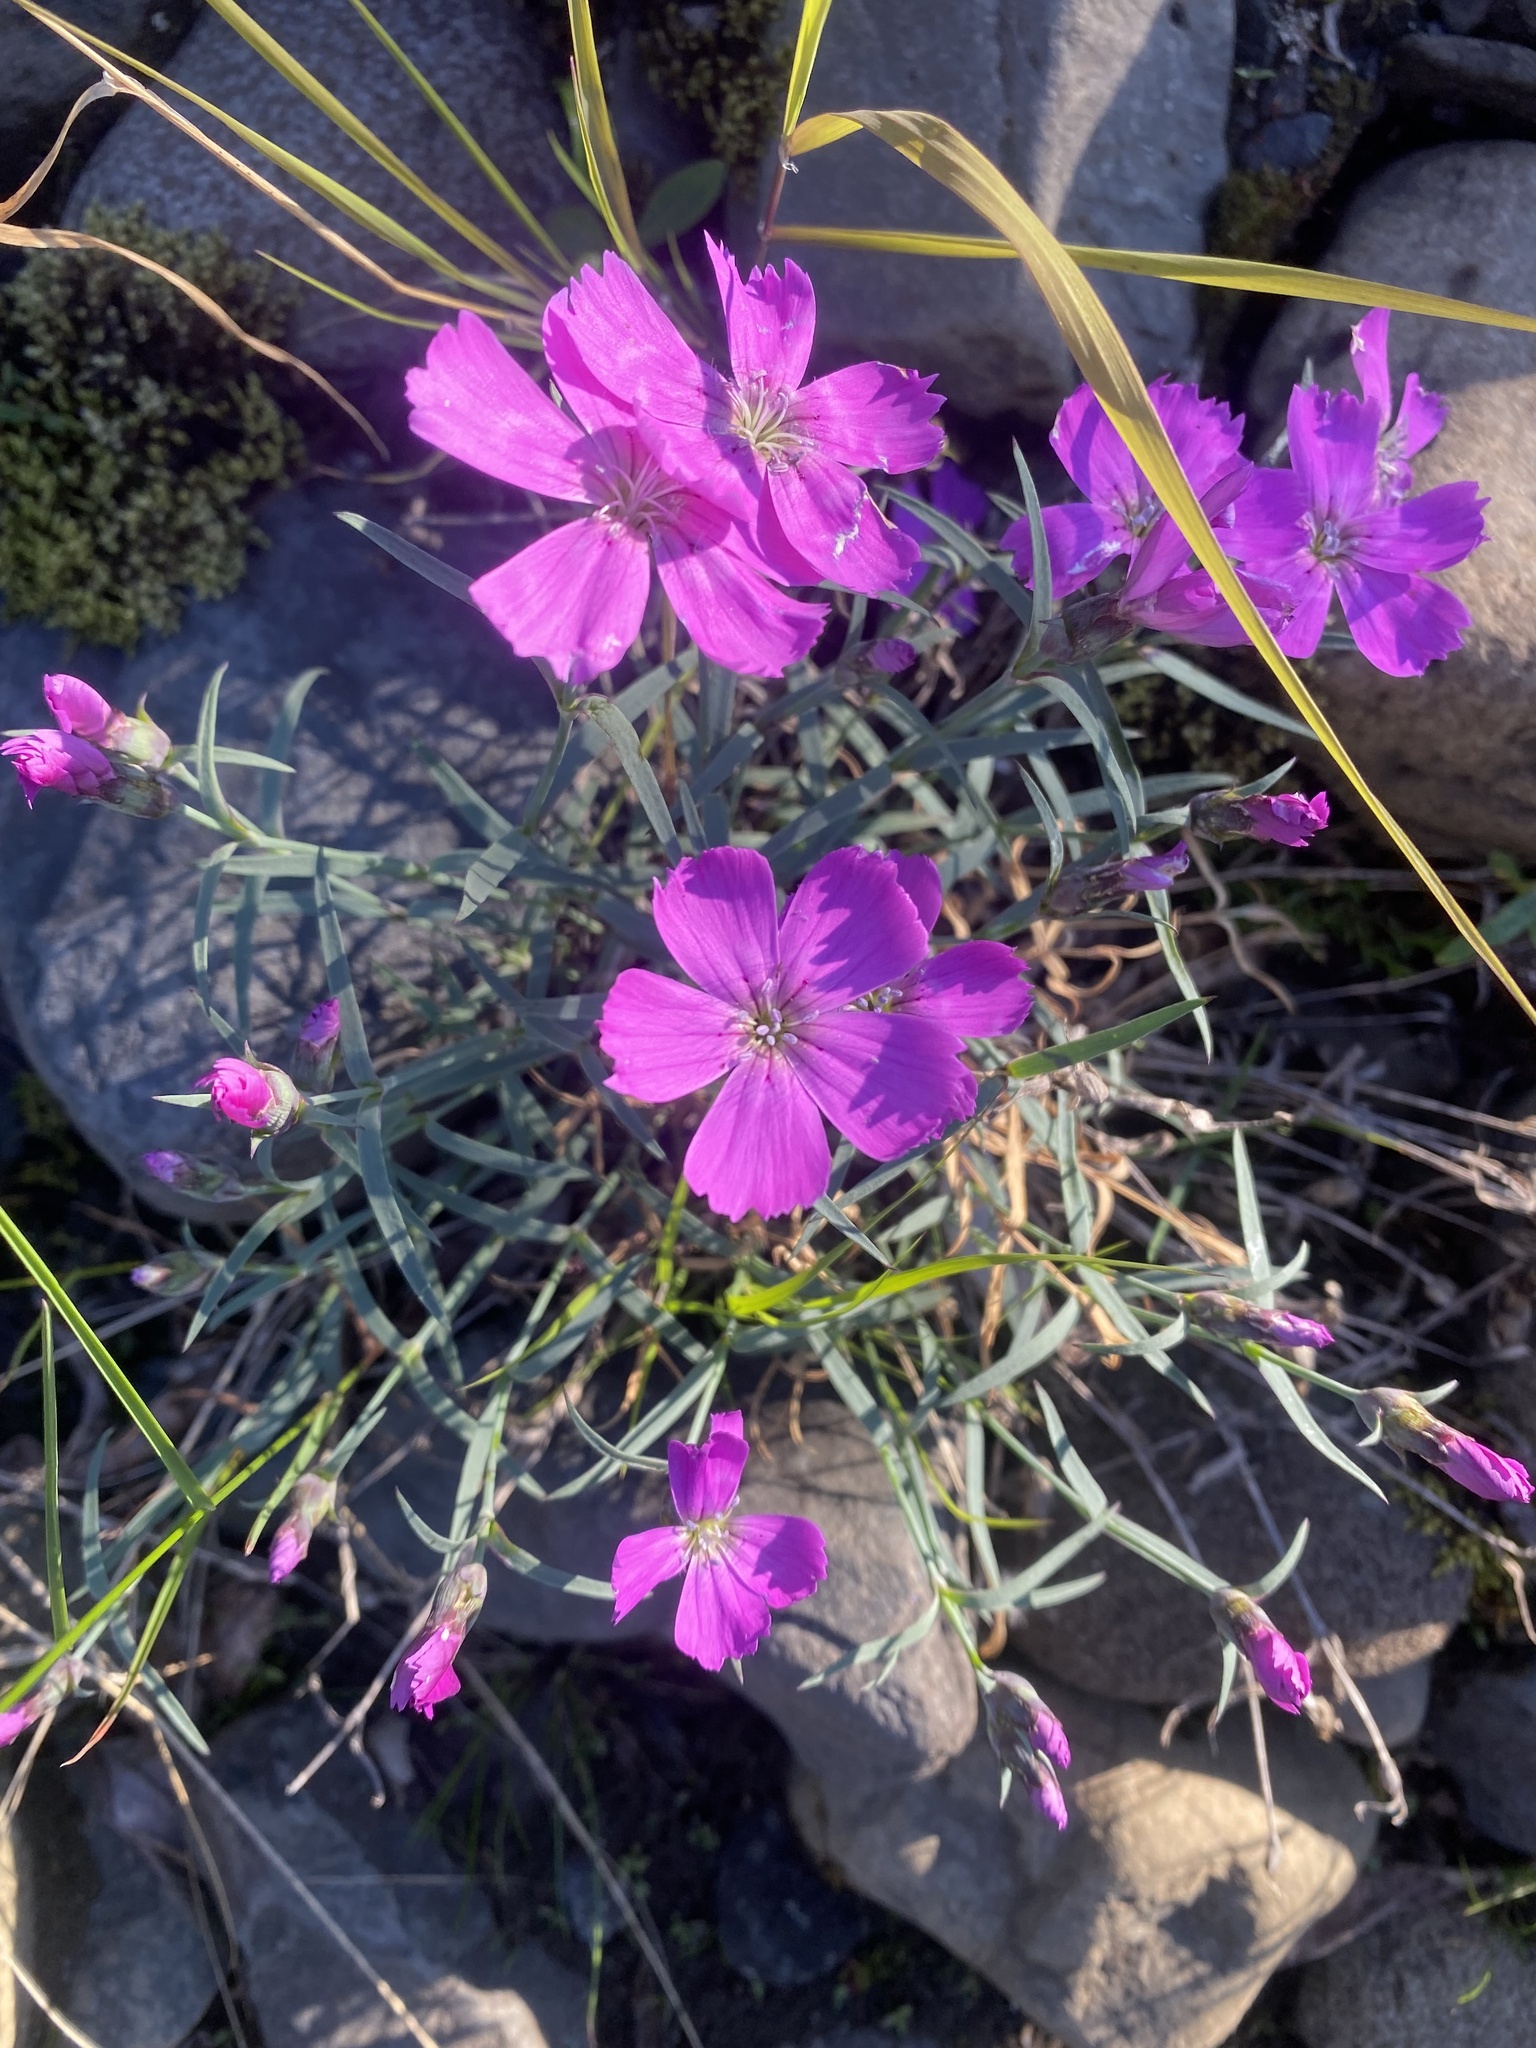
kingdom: Plantae
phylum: Tracheophyta
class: Magnoliopsida
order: Caryophyllales
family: Caryophyllaceae
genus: Dianthus
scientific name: Dianthus repens
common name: Northern pink
